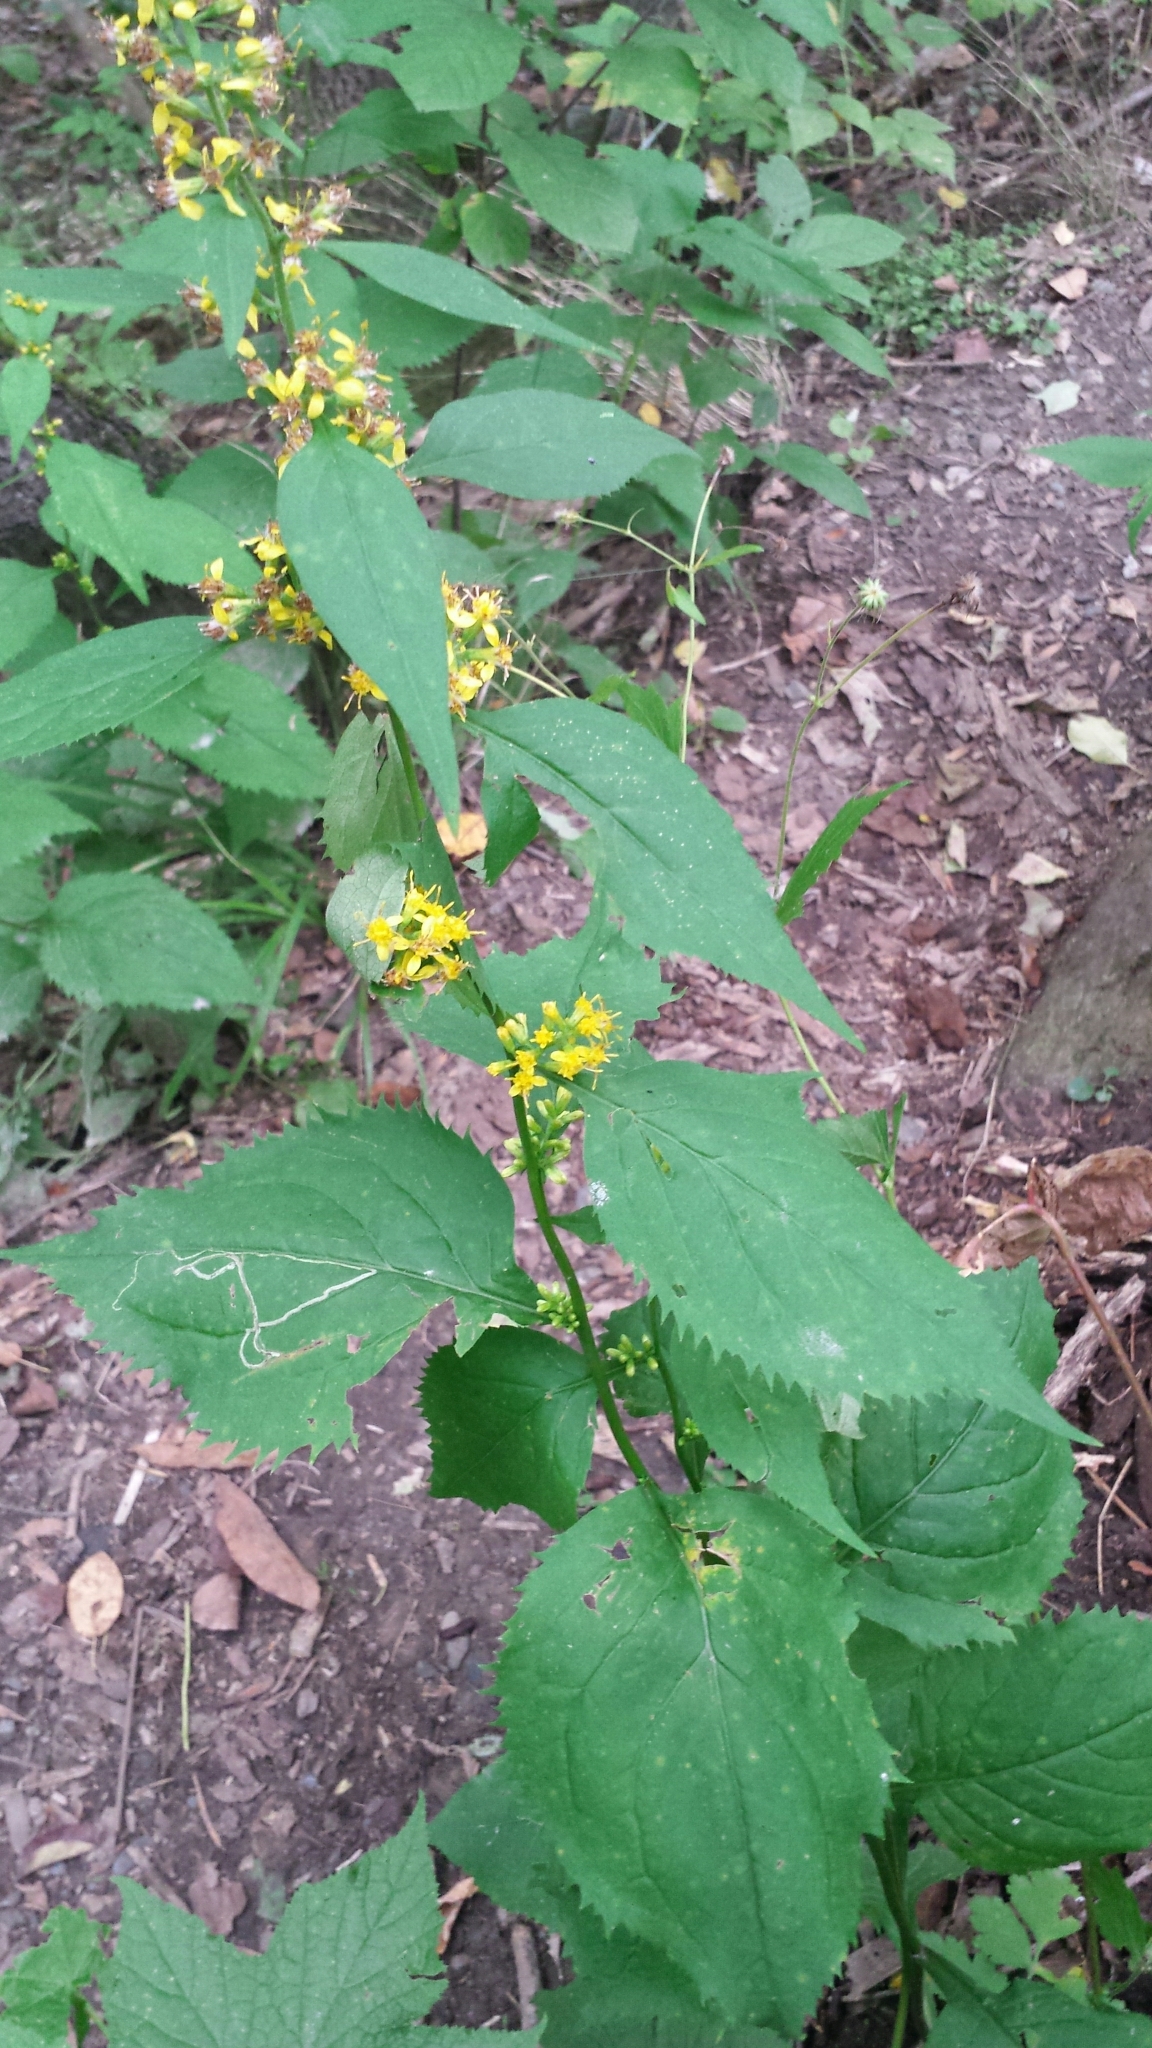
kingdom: Plantae
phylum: Tracheophyta
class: Magnoliopsida
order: Asterales
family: Asteraceae
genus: Solidago
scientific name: Solidago flexicaulis
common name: Zig-zag goldenrod
